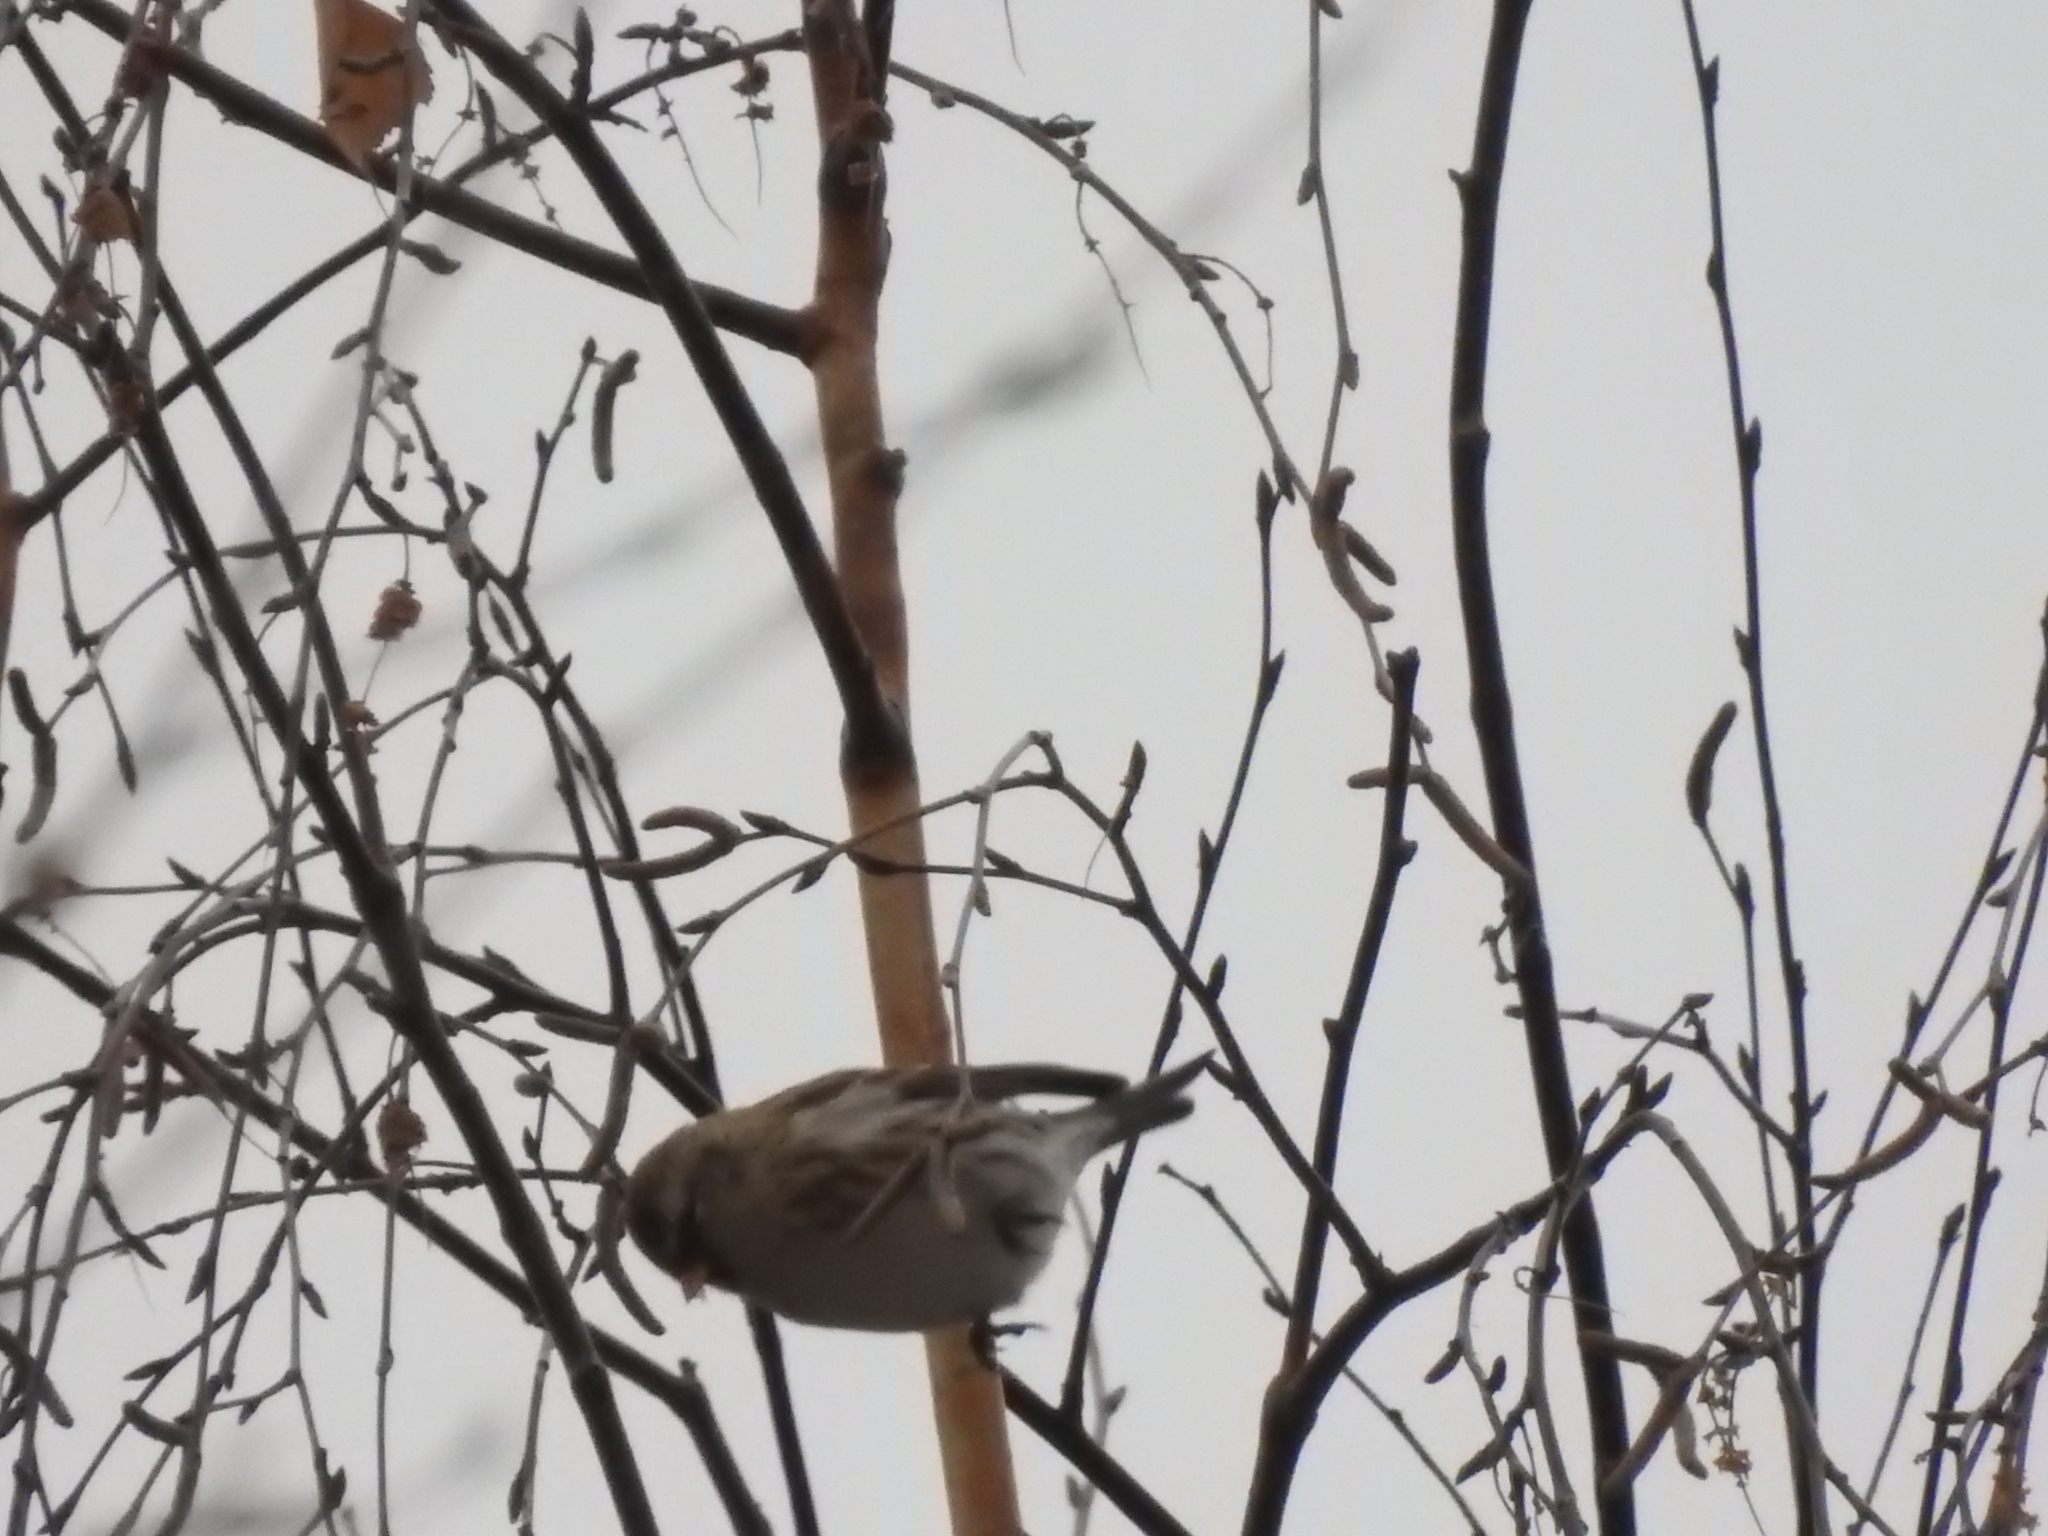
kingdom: Animalia
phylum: Chordata
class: Aves
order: Passeriformes
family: Fringillidae
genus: Acanthis
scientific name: Acanthis hornemanni
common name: Arctic redpoll
